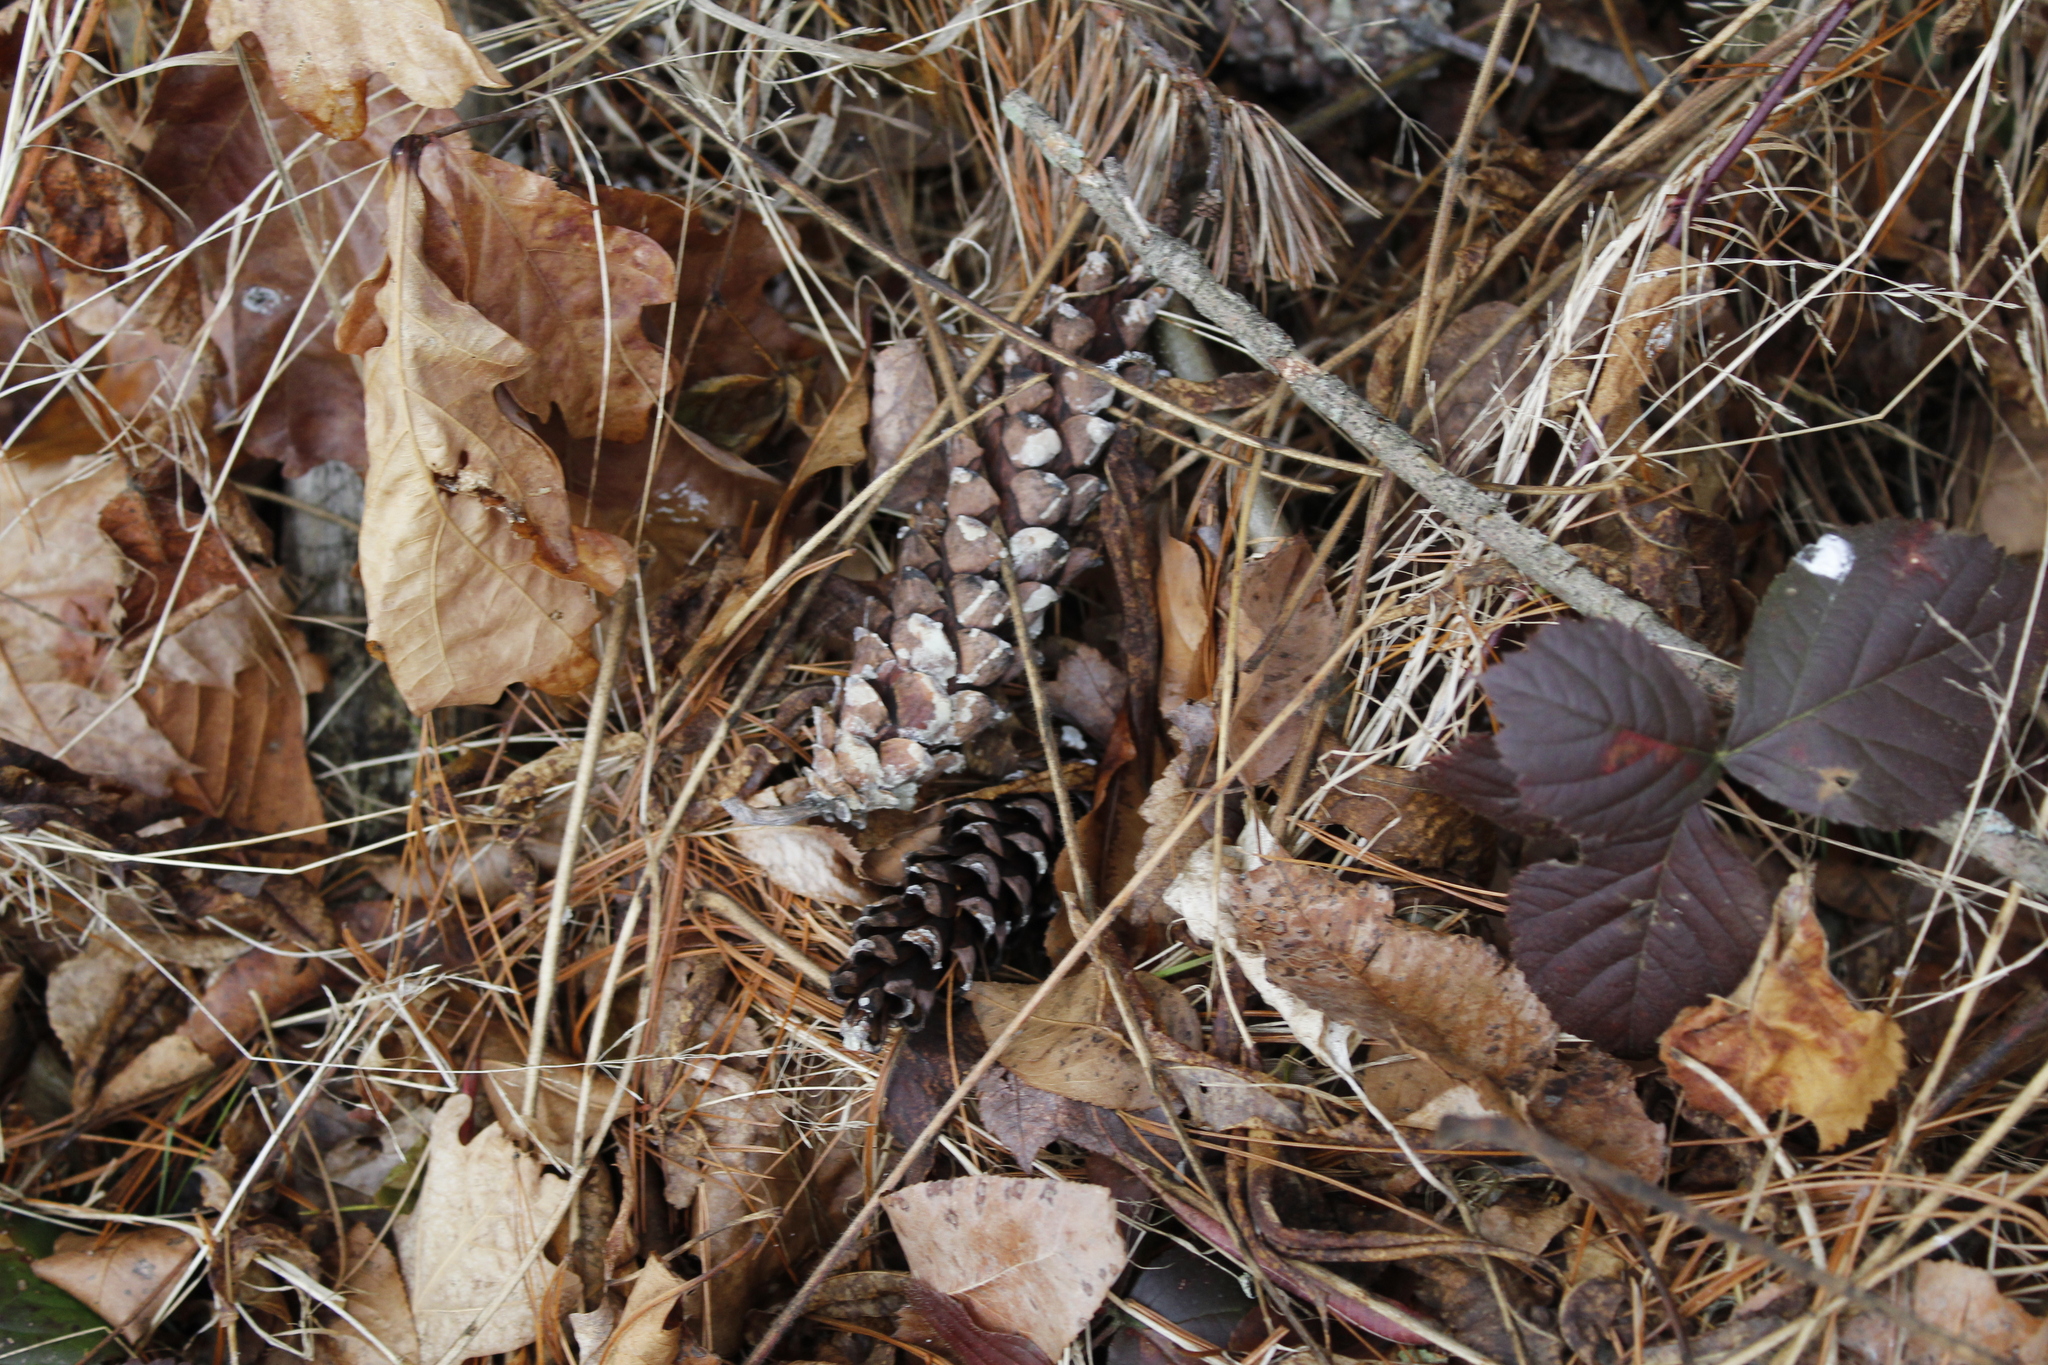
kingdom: Plantae
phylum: Tracheophyta
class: Pinopsida
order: Pinales
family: Pinaceae
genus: Pinus
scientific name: Pinus strobus
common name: Weymouth pine
